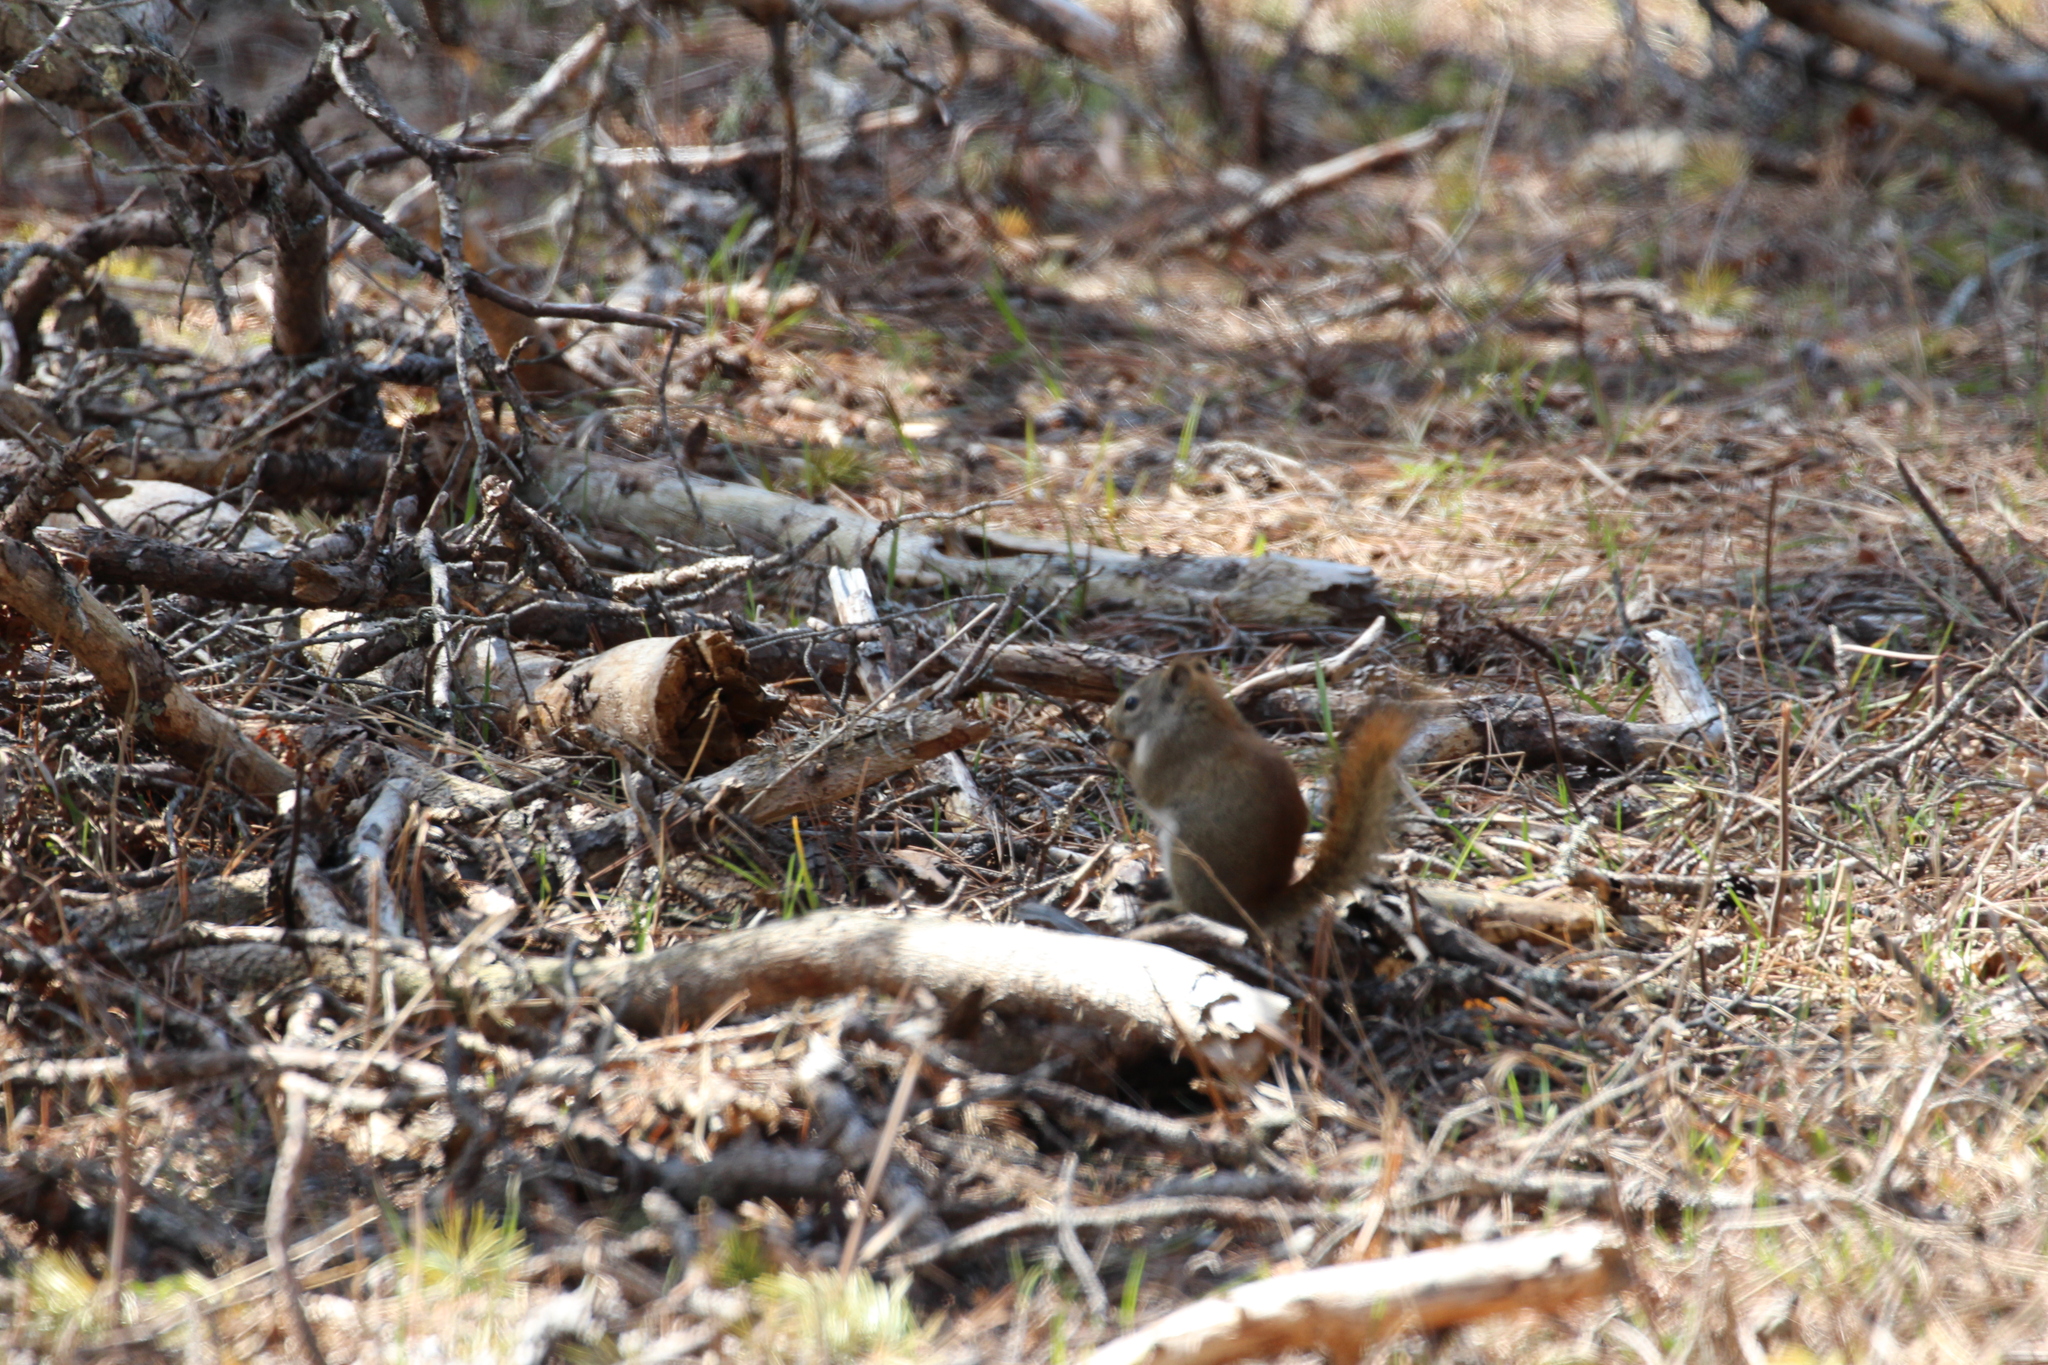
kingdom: Animalia
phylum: Chordata
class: Mammalia
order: Rodentia
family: Sciuridae
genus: Tamiasciurus
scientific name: Tamiasciurus hudsonicus
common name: Red squirrel
